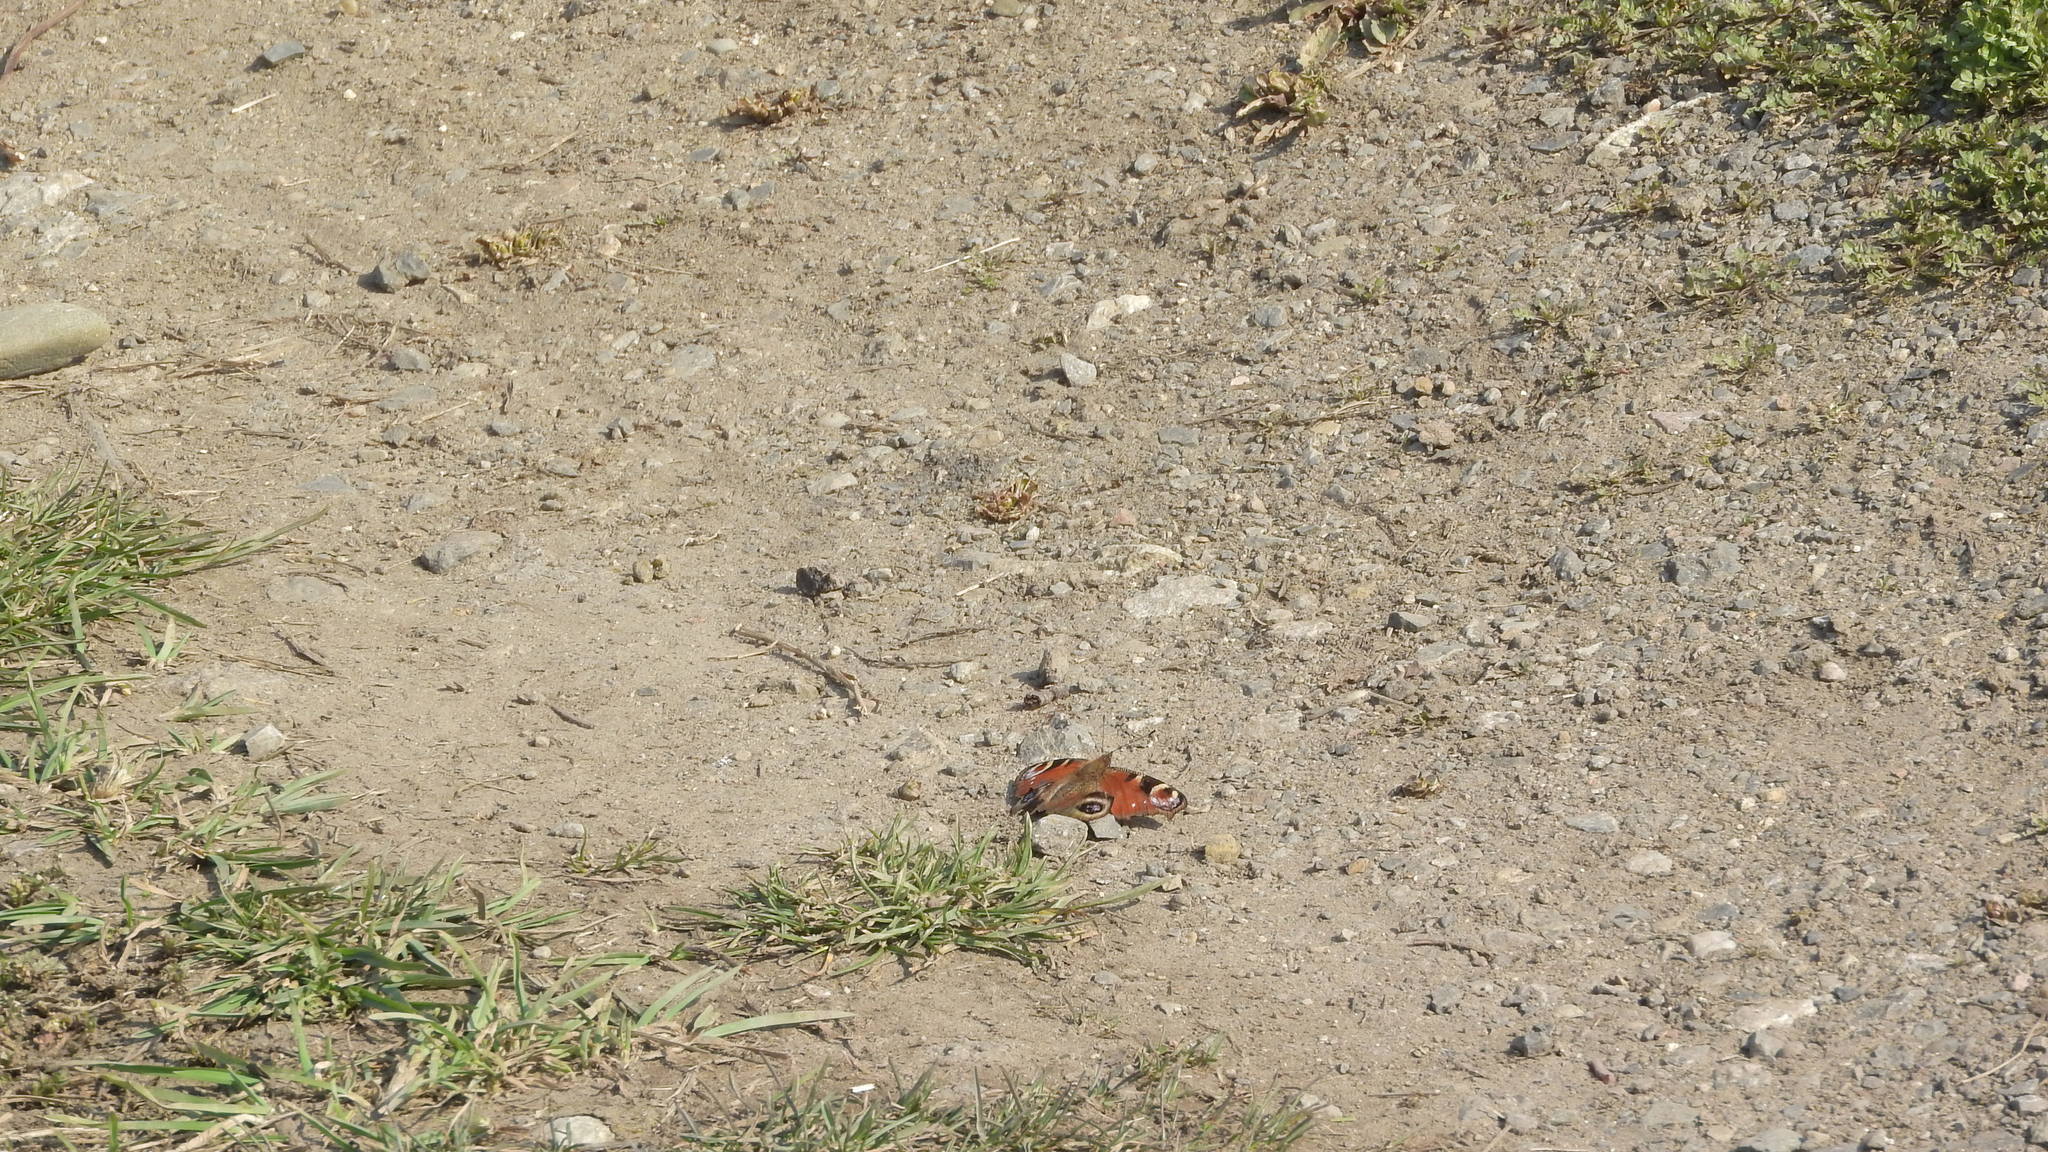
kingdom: Animalia
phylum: Arthropoda
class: Insecta
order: Lepidoptera
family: Nymphalidae
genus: Aglais
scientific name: Aglais io
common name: Peacock
